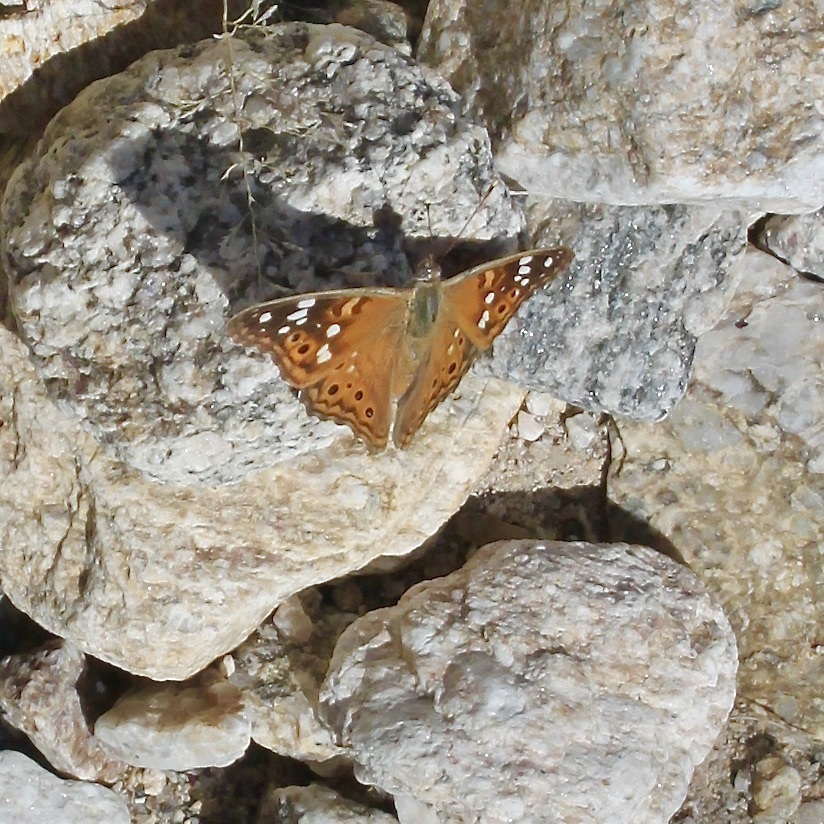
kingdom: Animalia
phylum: Arthropoda
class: Insecta
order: Lepidoptera
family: Nymphalidae
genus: Asterocampa
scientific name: Asterocampa leilia
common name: Empress leilia
